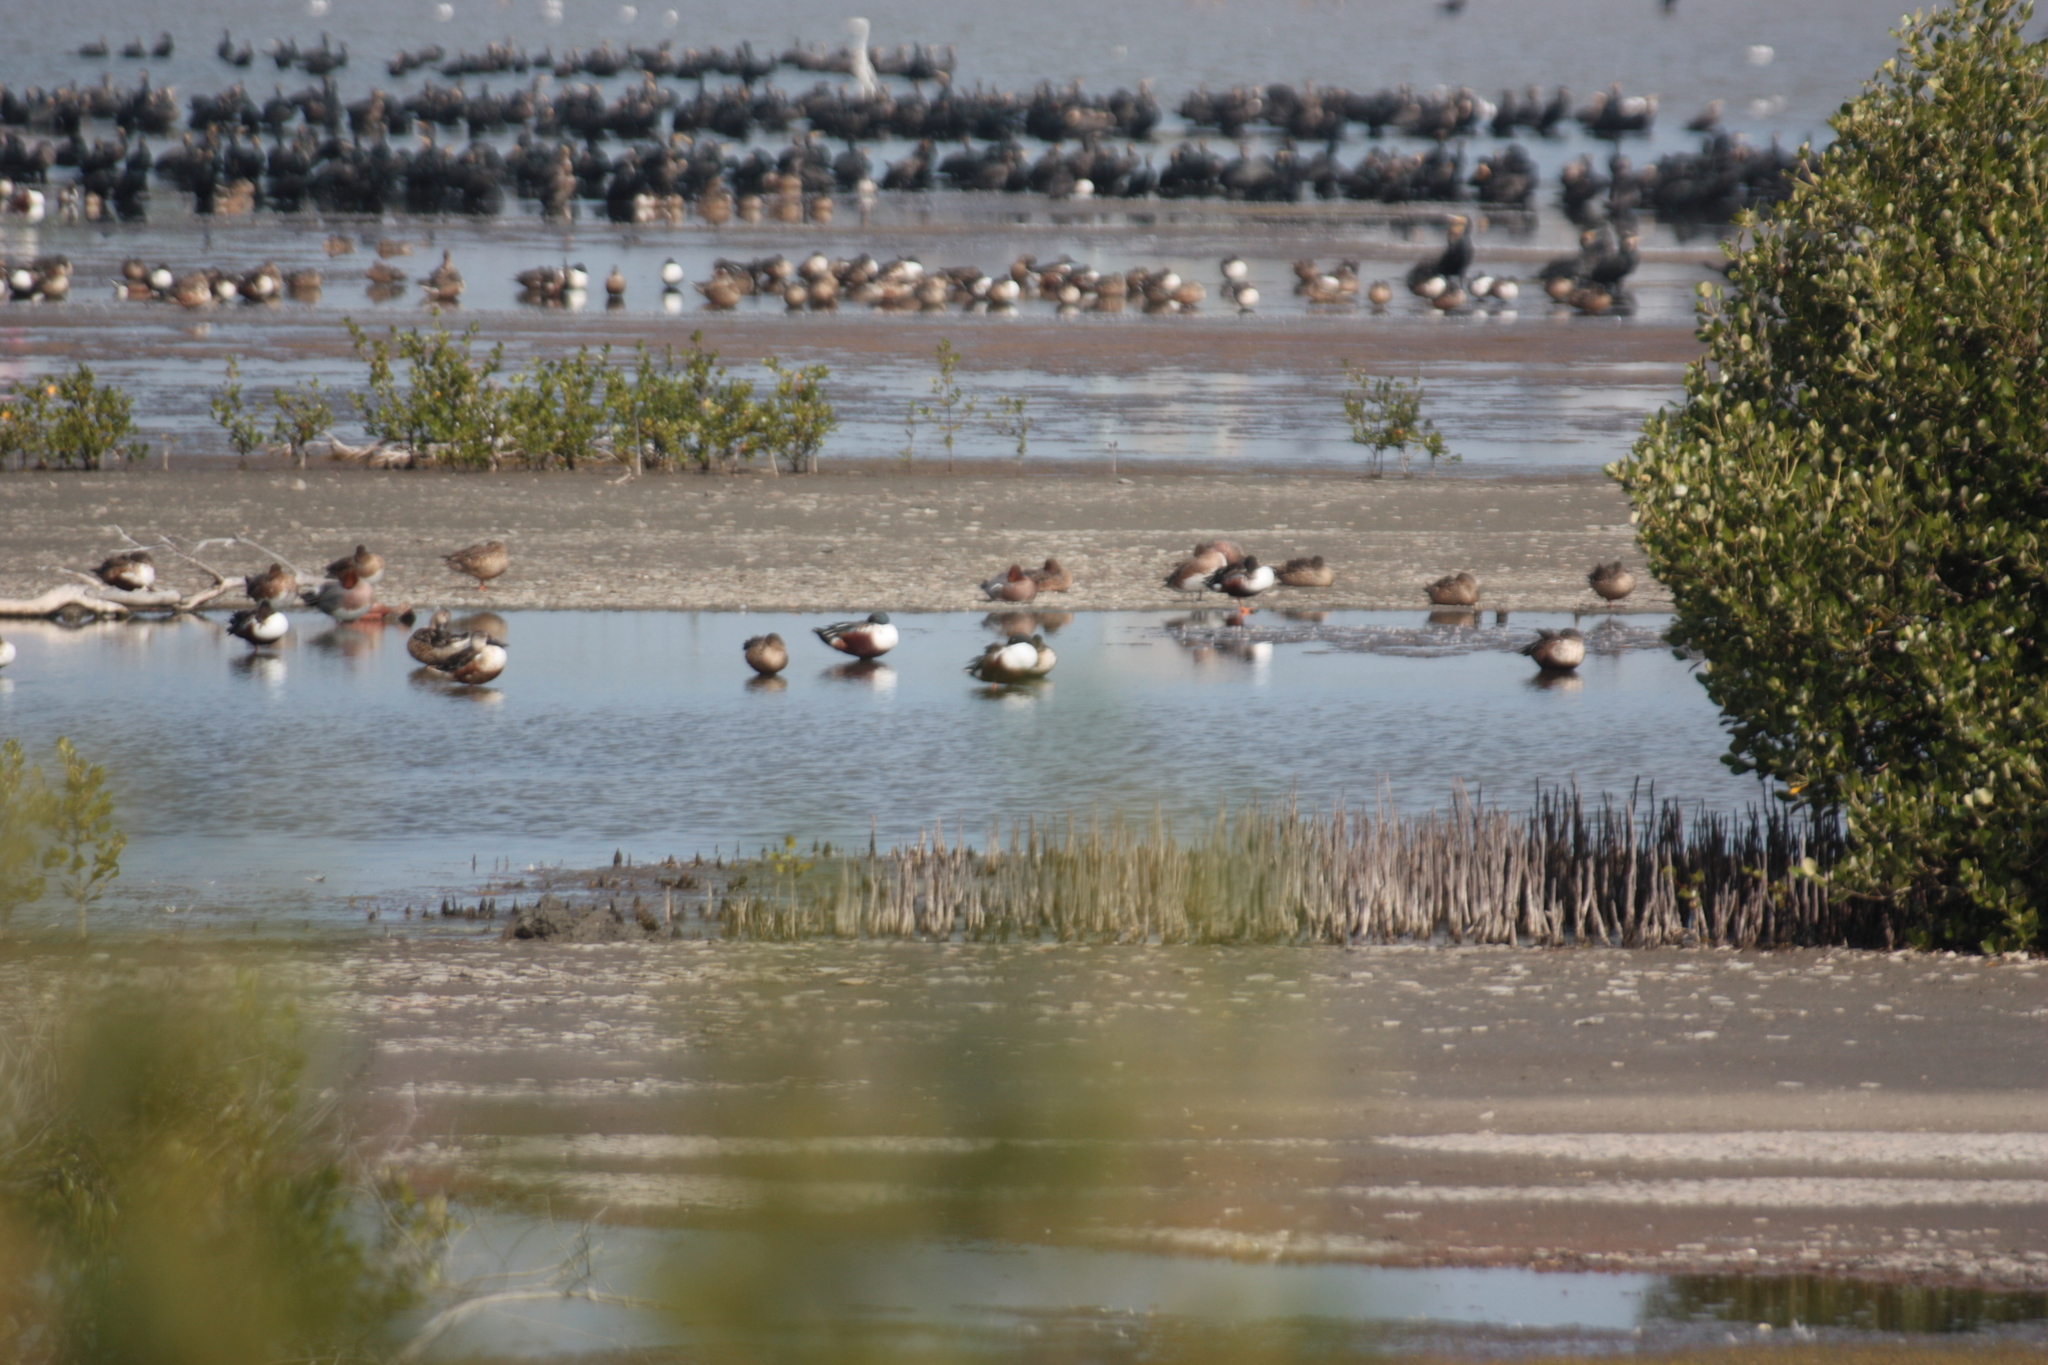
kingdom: Animalia
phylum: Chordata
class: Aves
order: Anseriformes
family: Anatidae
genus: Spatula
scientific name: Spatula clypeata
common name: Northern shoveler
